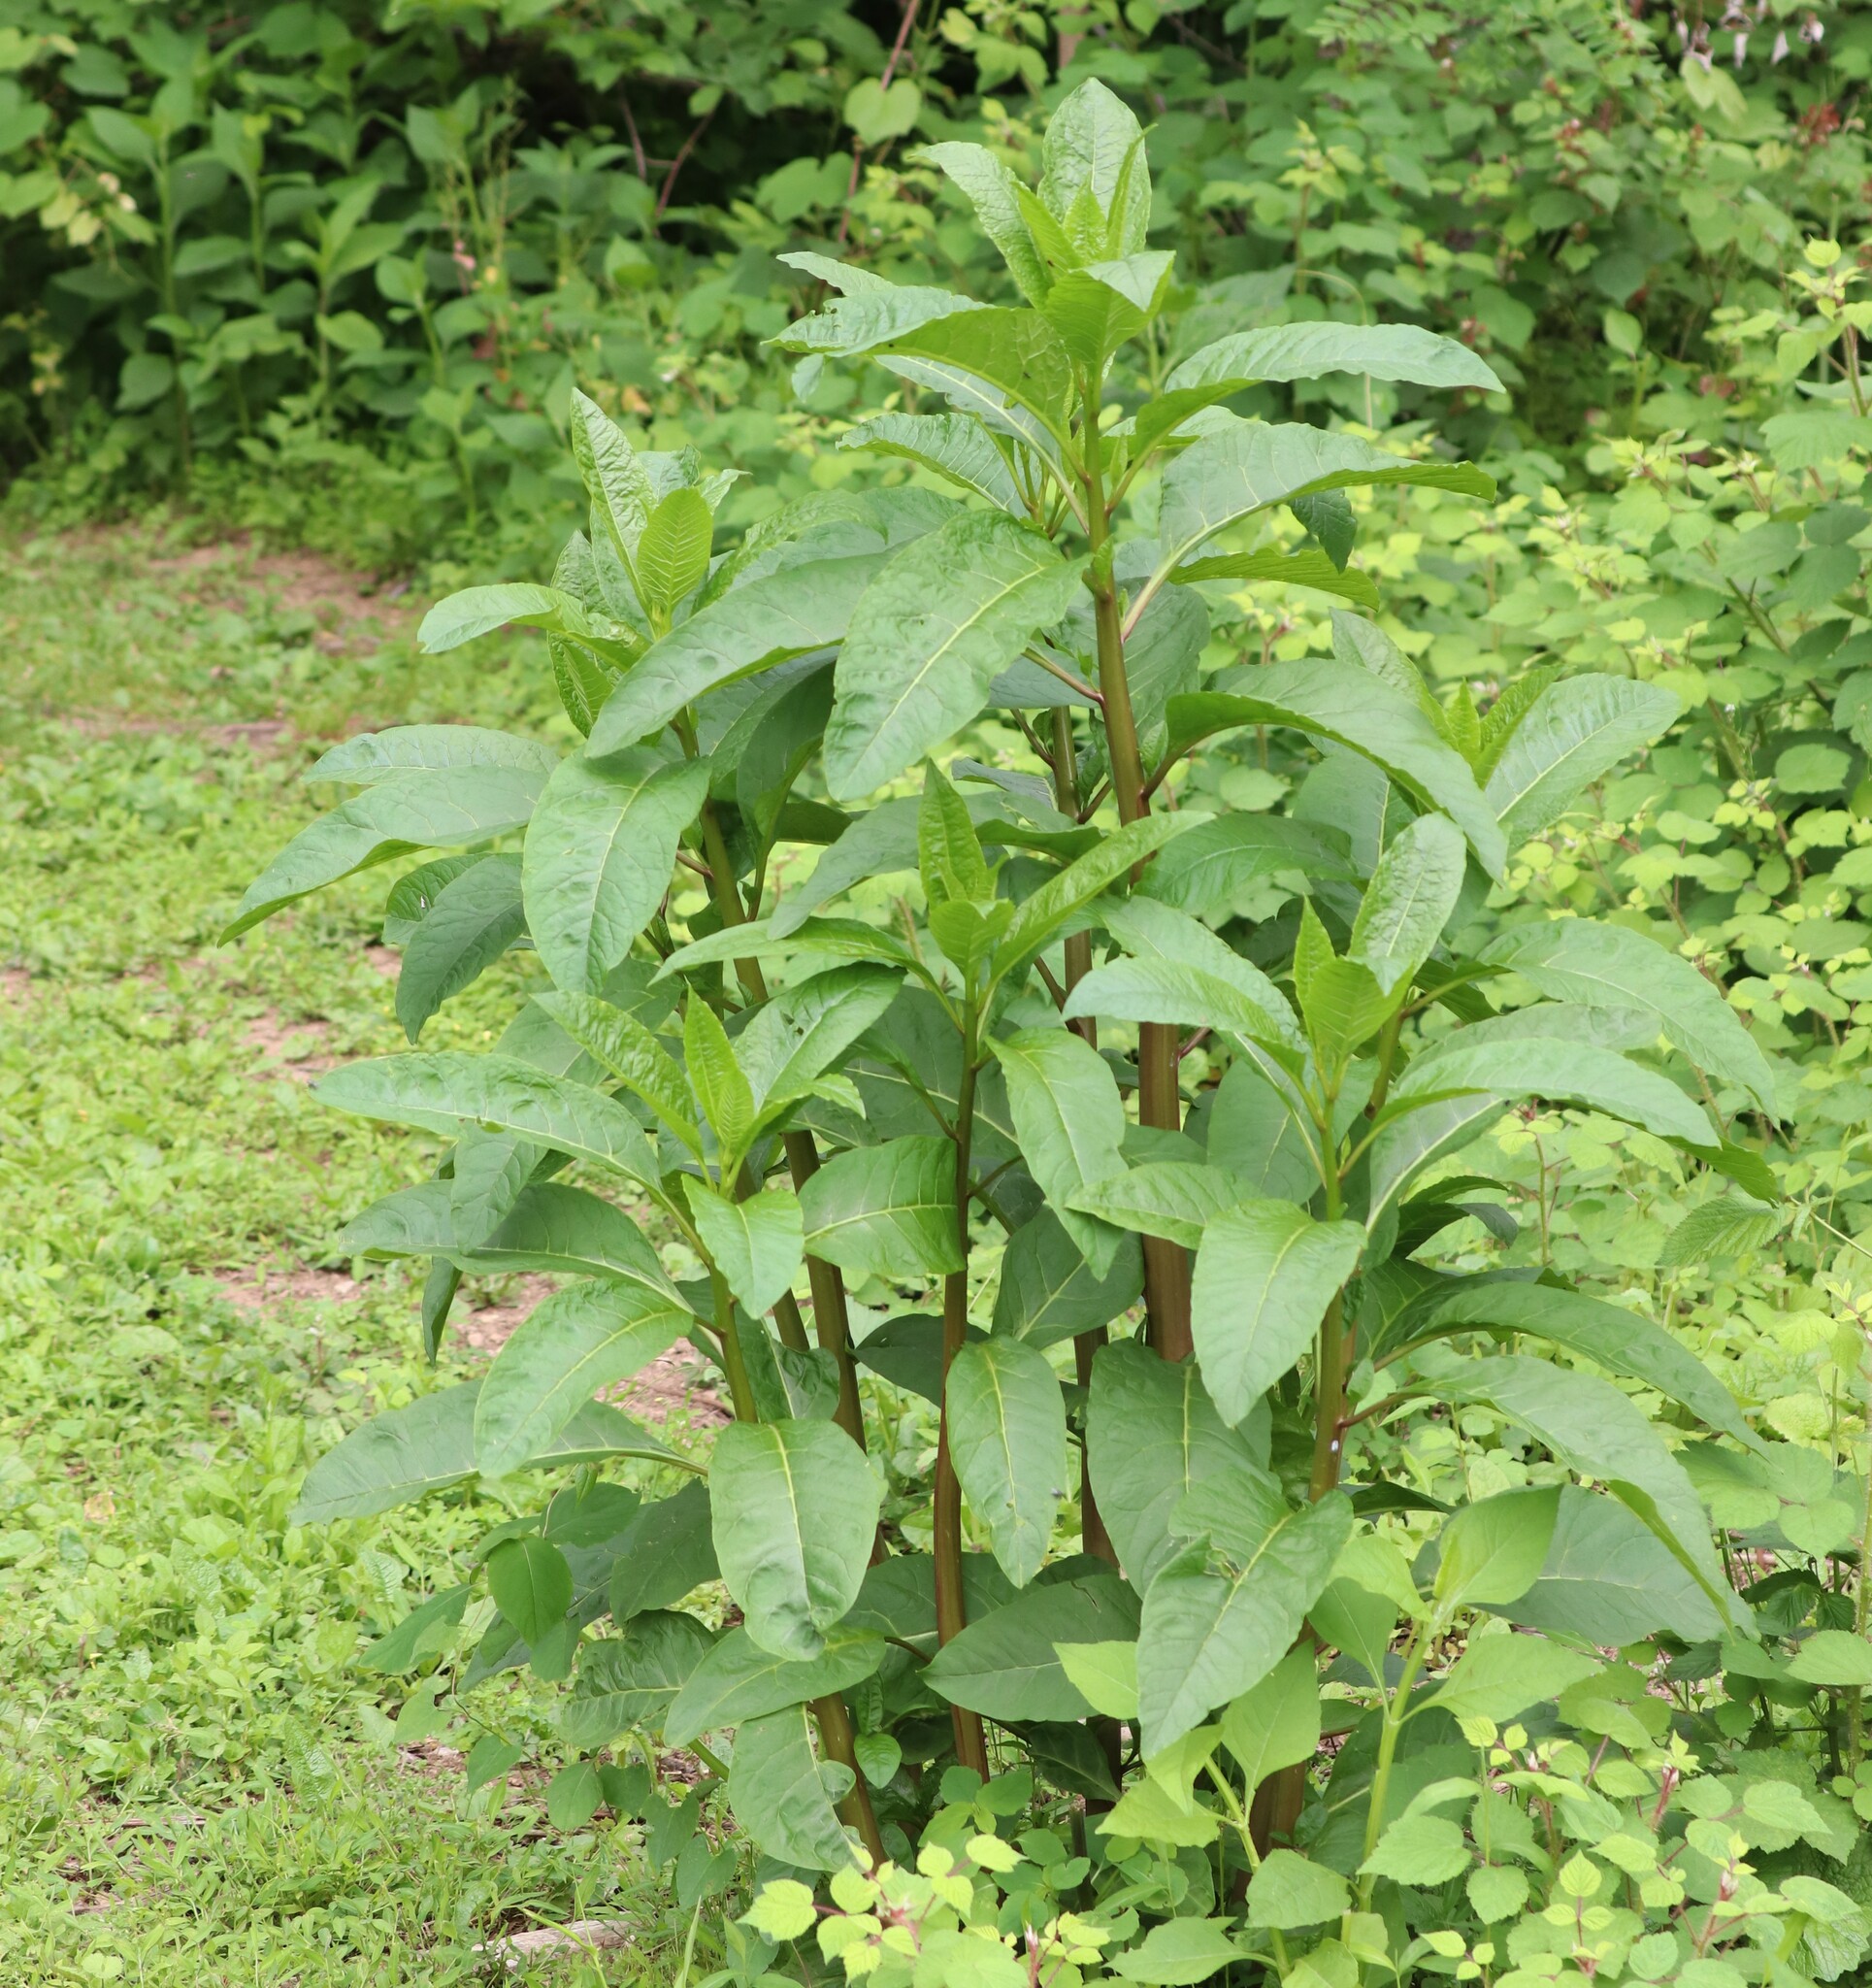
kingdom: Plantae
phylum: Tracheophyta
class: Magnoliopsida
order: Caryophyllales
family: Phytolaccaceae
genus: Phytolacca
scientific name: Phytolacca americana
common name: American pokeweed
